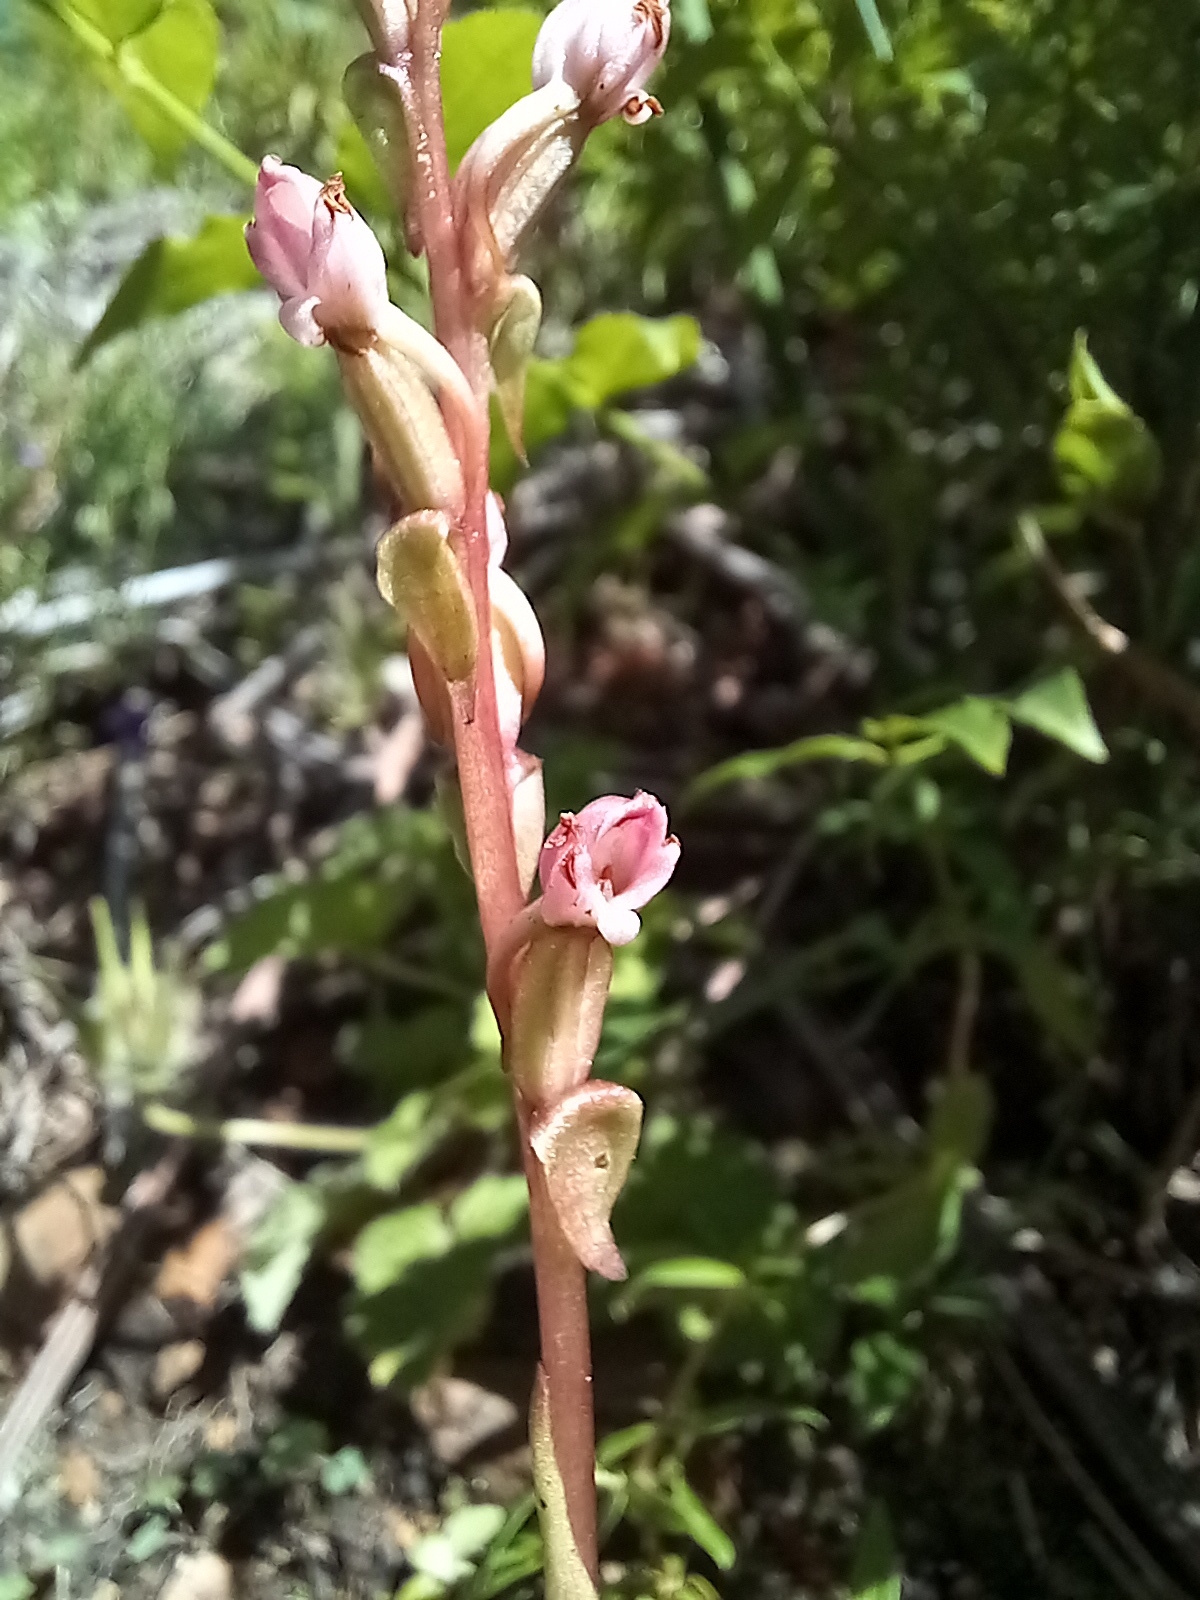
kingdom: Plantae
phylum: Tracheophyta
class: Liliopsida
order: Asparagales
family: Orchidaceae
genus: Satyrium
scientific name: Satyrium ligulatum
